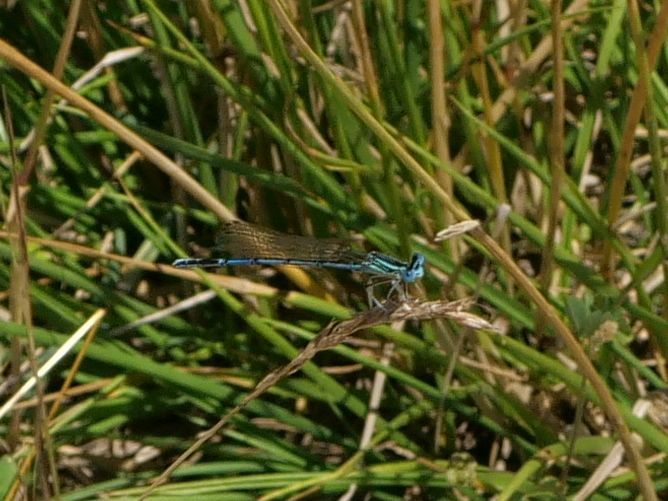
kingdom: Animalia
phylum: Arthropoda
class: Insecta
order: Odonata
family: Platycnemididae
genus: Platycnemis
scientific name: Platycnemis pennipes
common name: White-legged damselfly
